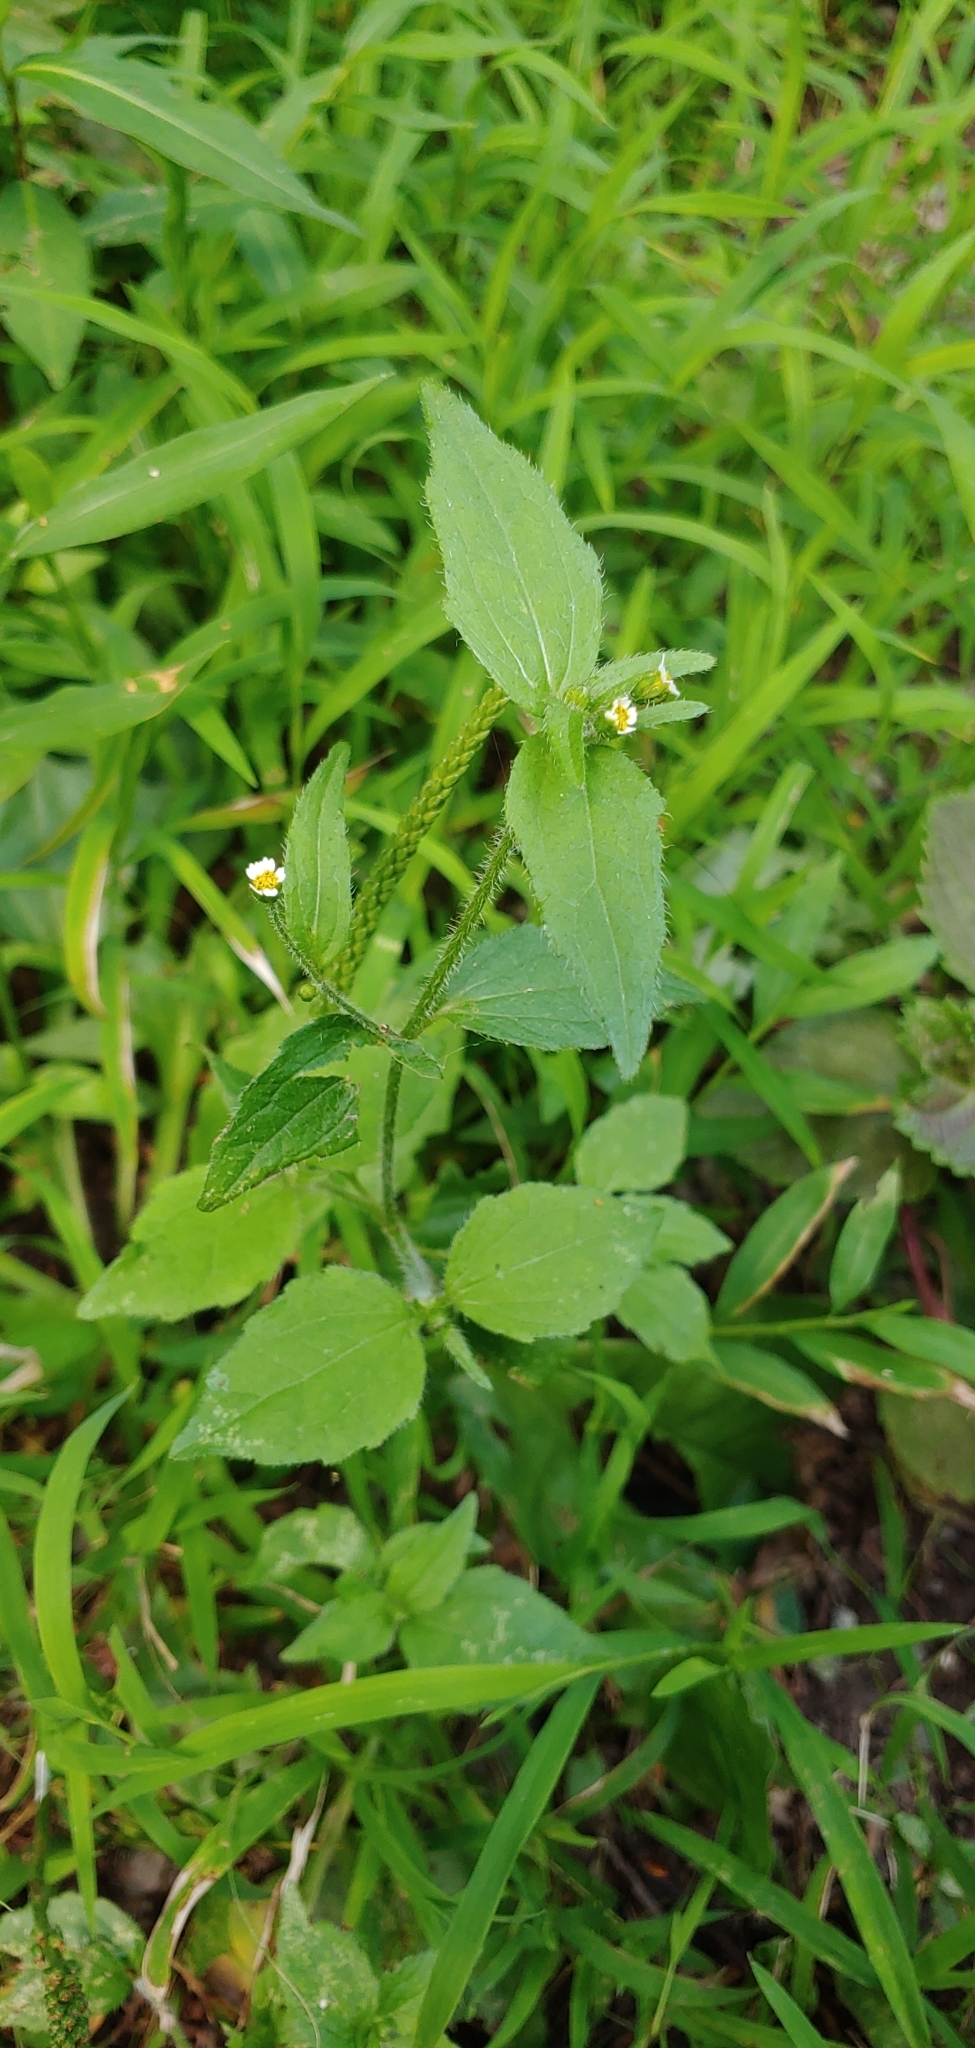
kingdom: Plantae
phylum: Tracheophyta
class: Magnoliopsida
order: Asterales
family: Asteraceae
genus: Galinsoga
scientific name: Galinsoga quadriradiata
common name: Shaggy soldier
